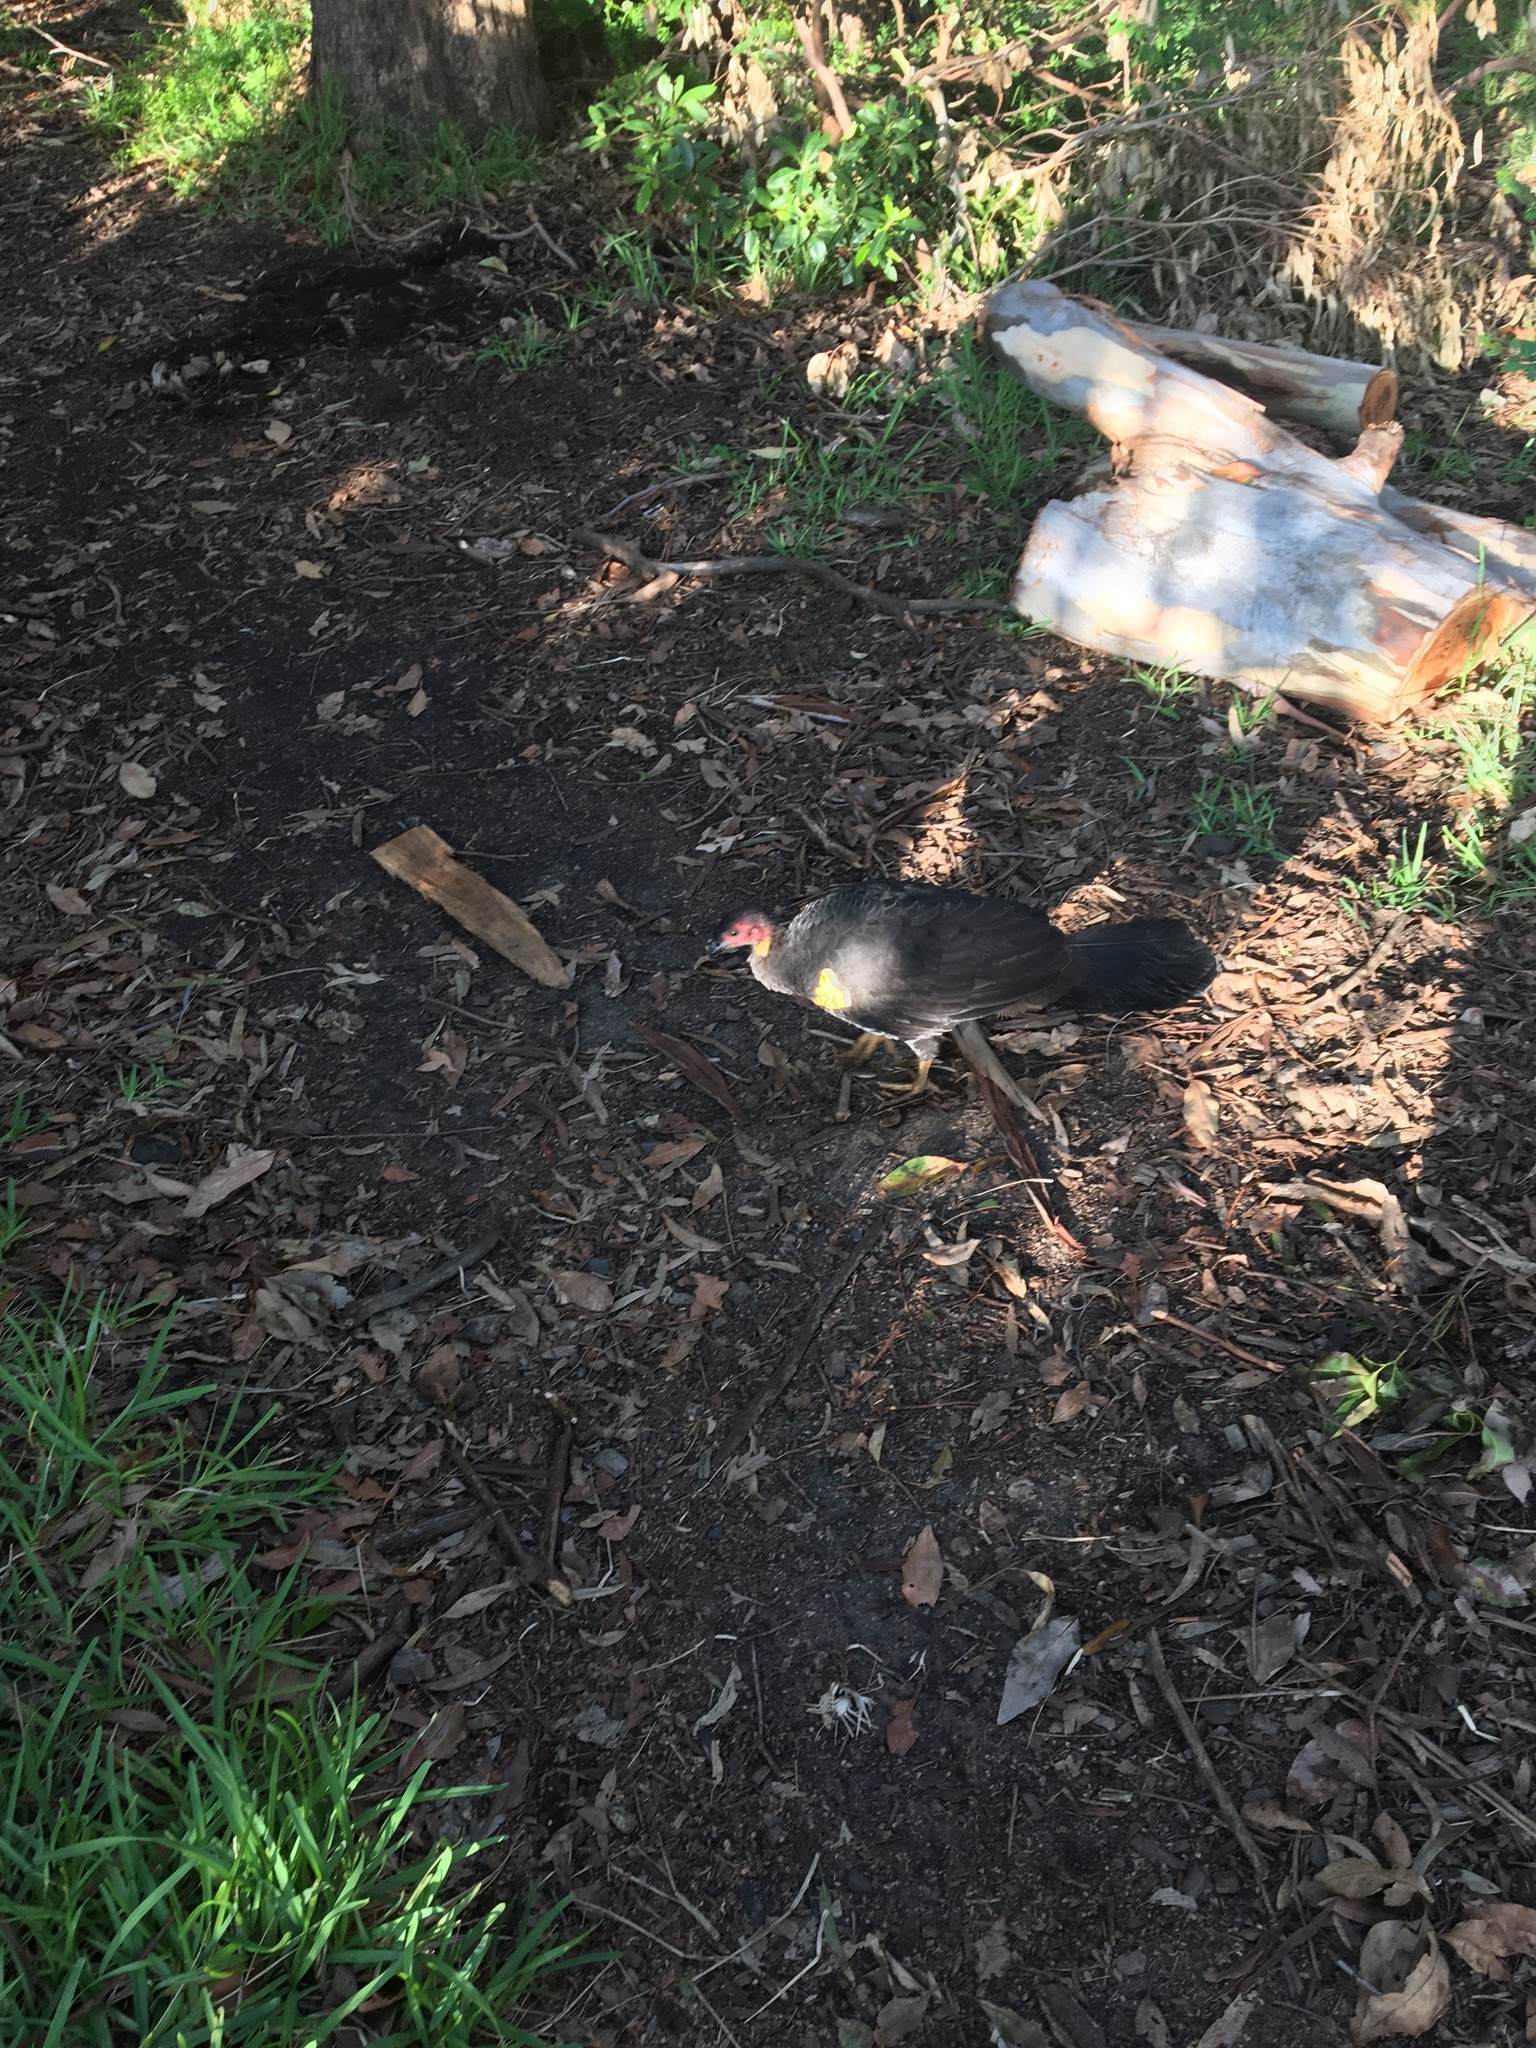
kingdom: Animalia
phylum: Chordata
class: Aves
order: Galliformes
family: Megapodiidae
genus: Alectura
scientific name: Alectura lathami
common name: Australian brushturkey
